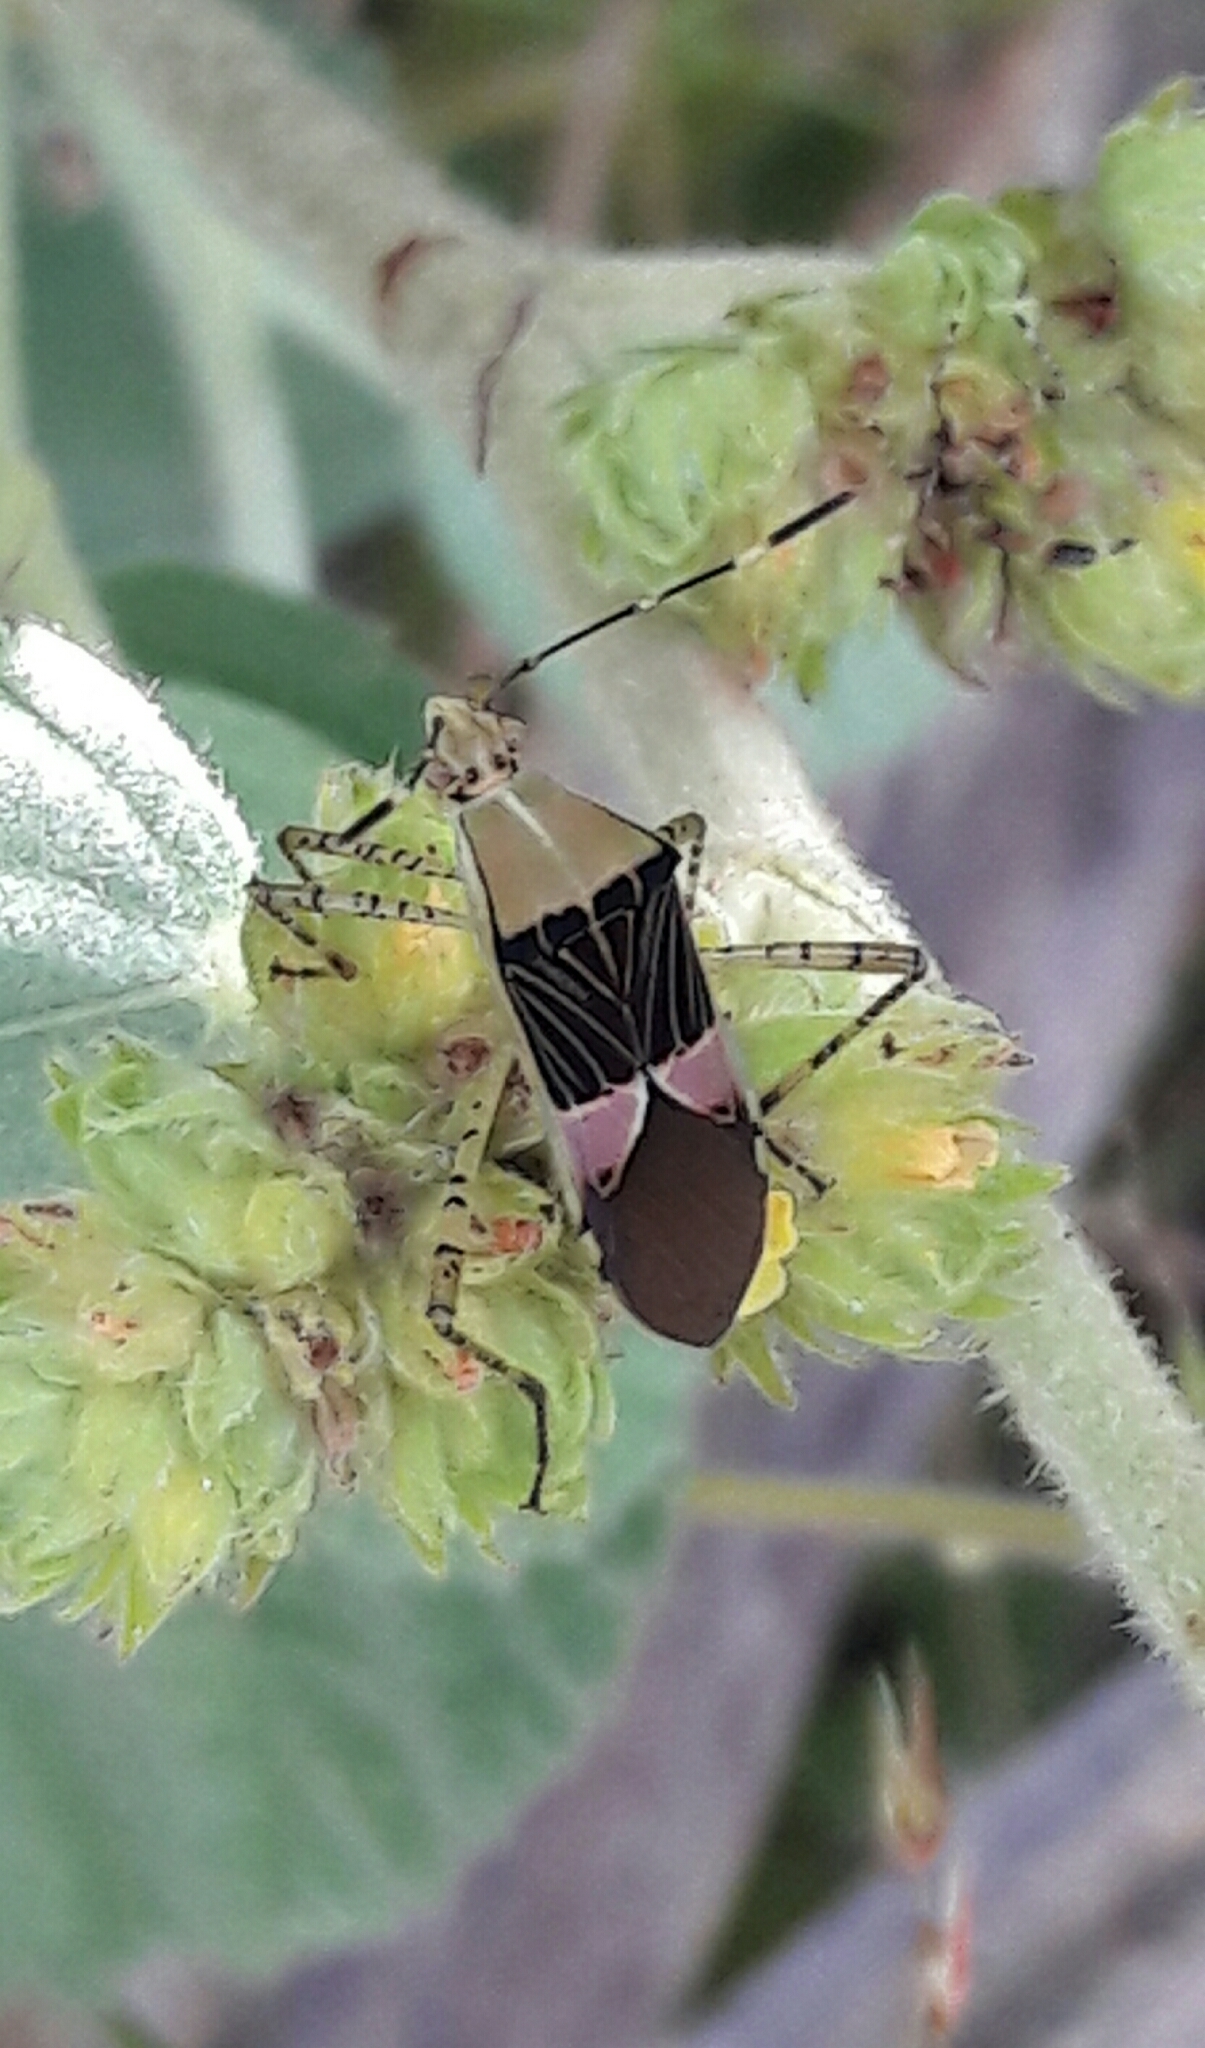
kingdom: Animalia
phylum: Arthropoda
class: Insecta
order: Hemiptera
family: Coreidae
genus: Hypselonotus
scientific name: Hypselonotus fulvus
